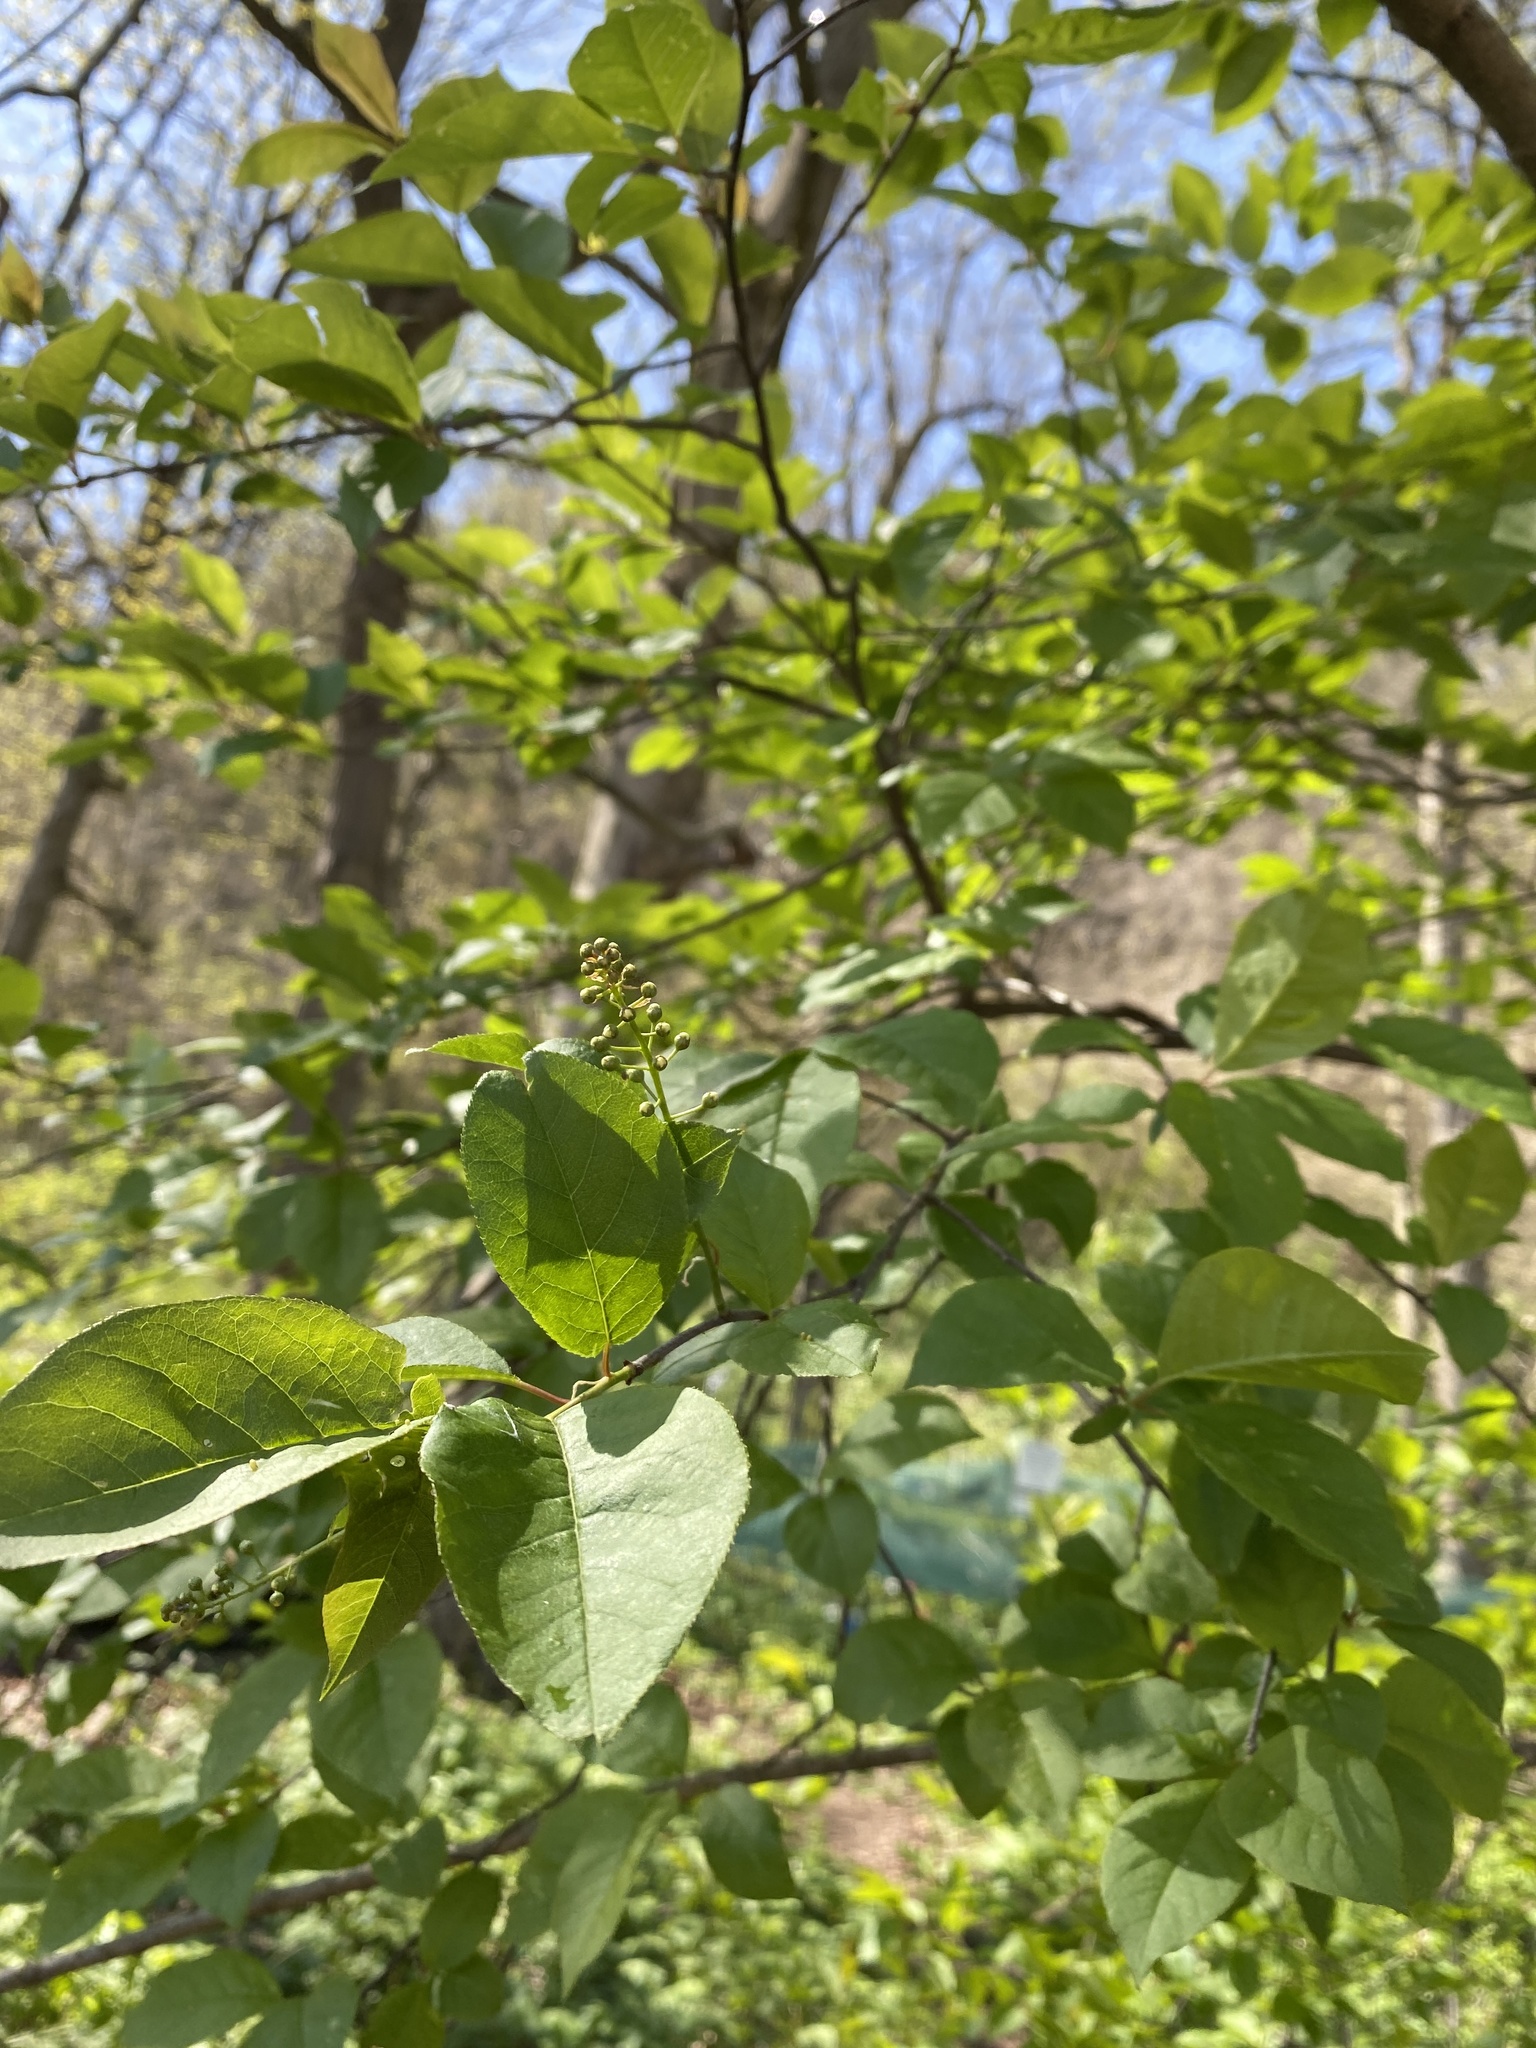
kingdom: Plantae
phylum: Tracheophyta
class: Magnoliopsida
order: Rosales
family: Rosaceae
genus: Prunus
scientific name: Prunus virginiana
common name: Chokecherry
